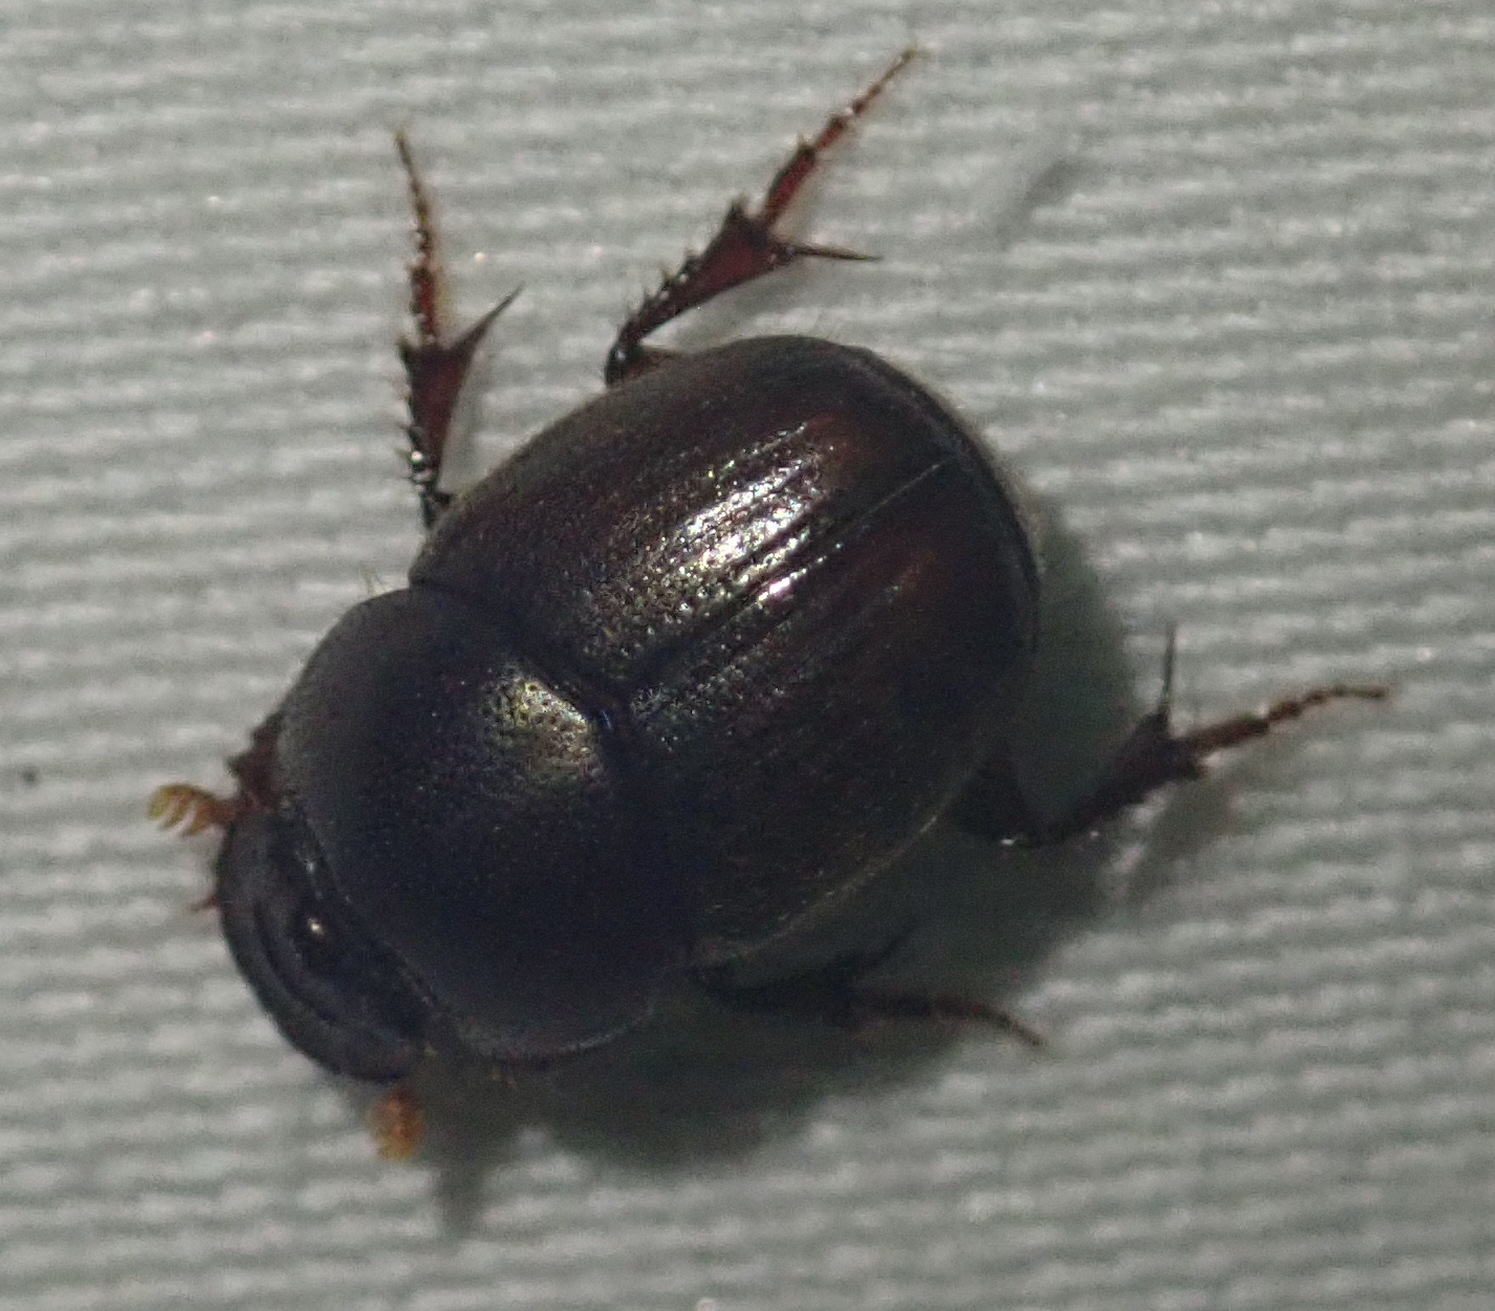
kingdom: Animalia
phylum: Arthropoda
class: Insecta
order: Coleoptera
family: Scarabaeidae
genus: Euonthophagus
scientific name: Euonthophagus carbonarius
